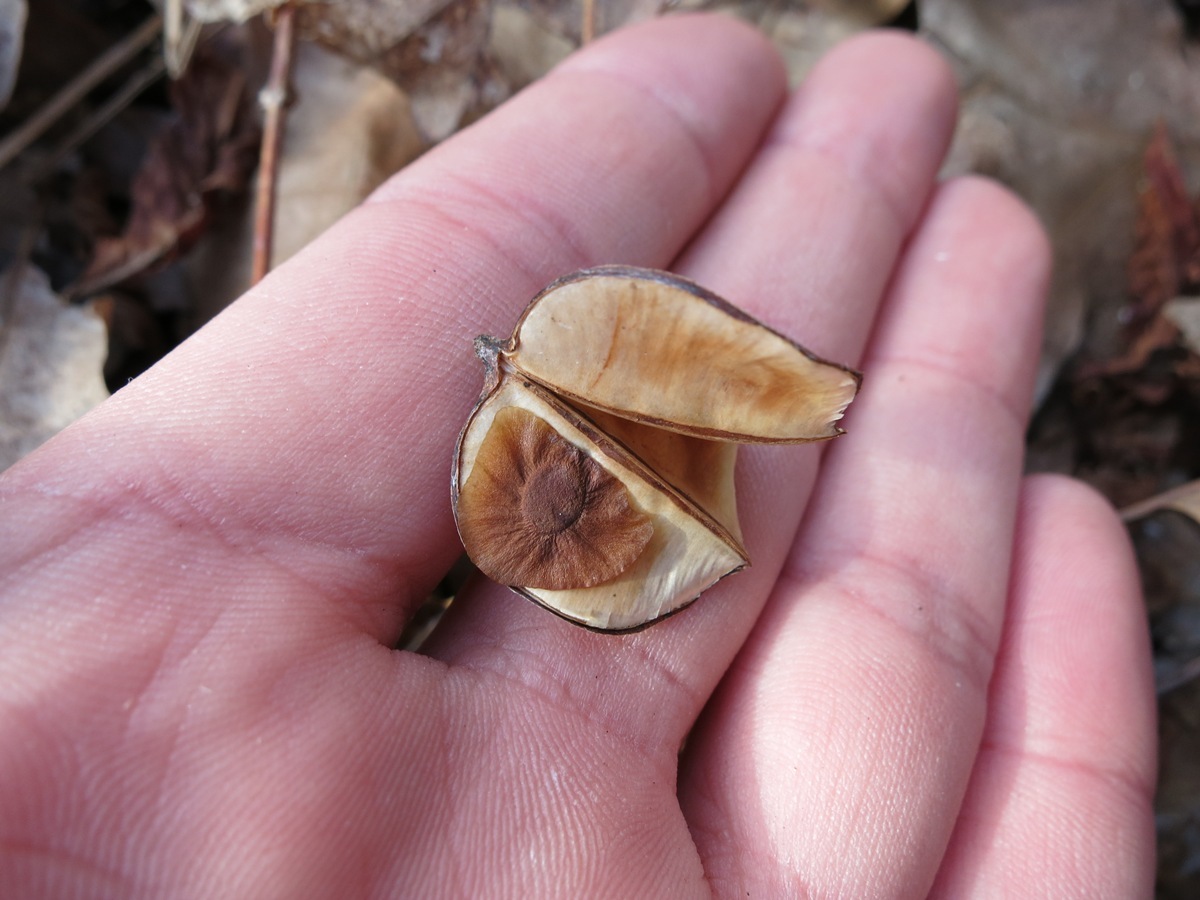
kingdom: Plantae
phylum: Tracheophyta
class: Liliopsida
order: Dioscoreales
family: Dioscoreaceae
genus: Dioscorea
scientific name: Dioscorea villosa
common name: Wild yam
